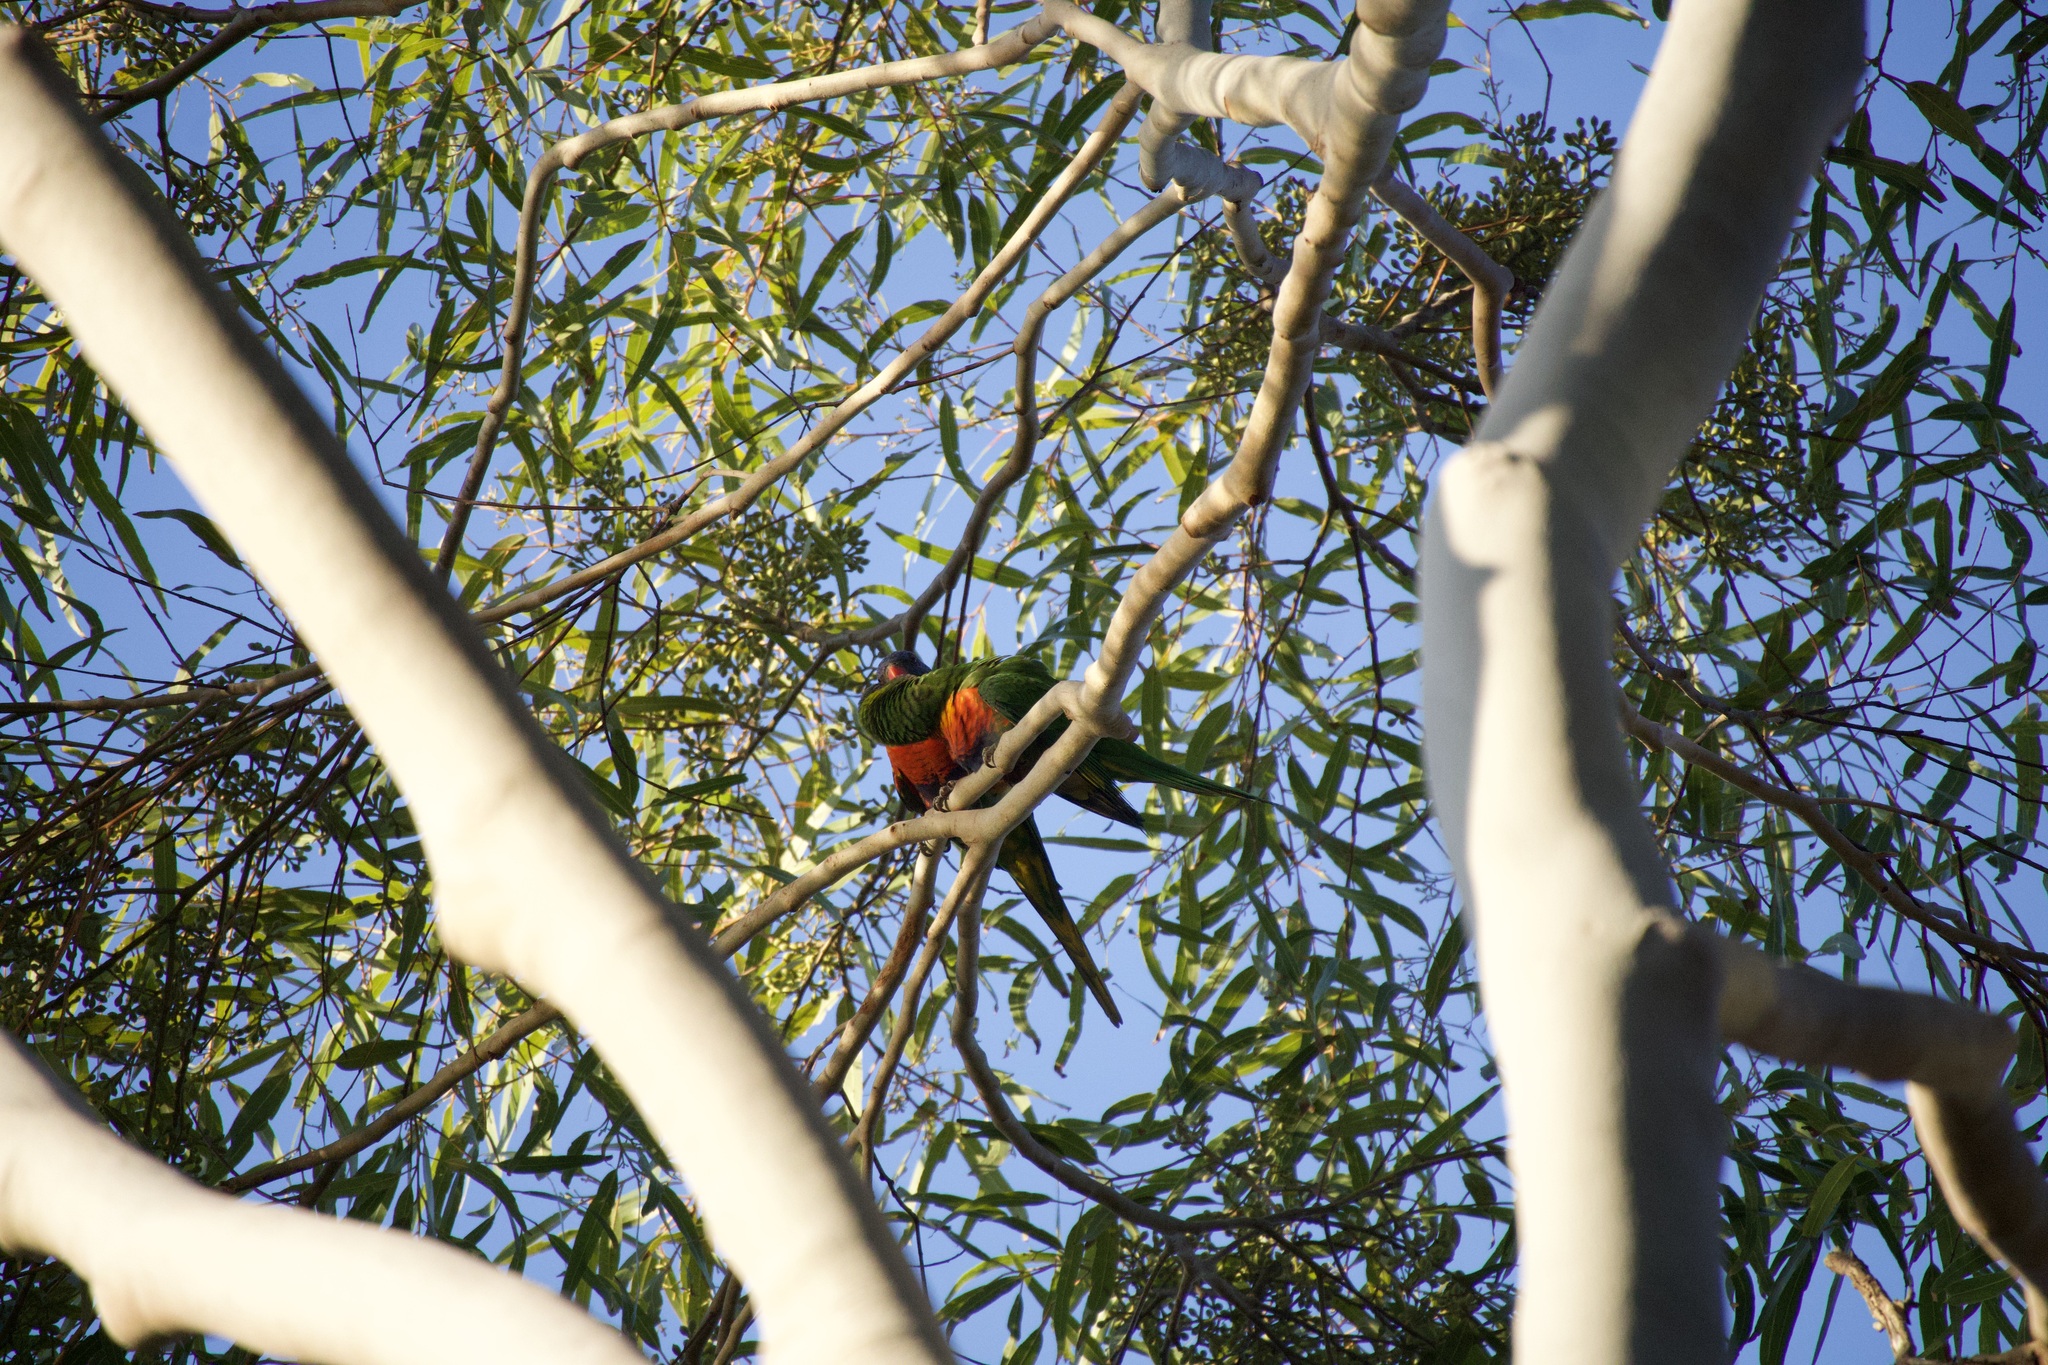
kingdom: Animalia
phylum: Chordata
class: Aves
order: Psittaciformes
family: Psittacidae
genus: Trichoglossus
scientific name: Trichoglossus haematodus
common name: Coconut lorikeet
